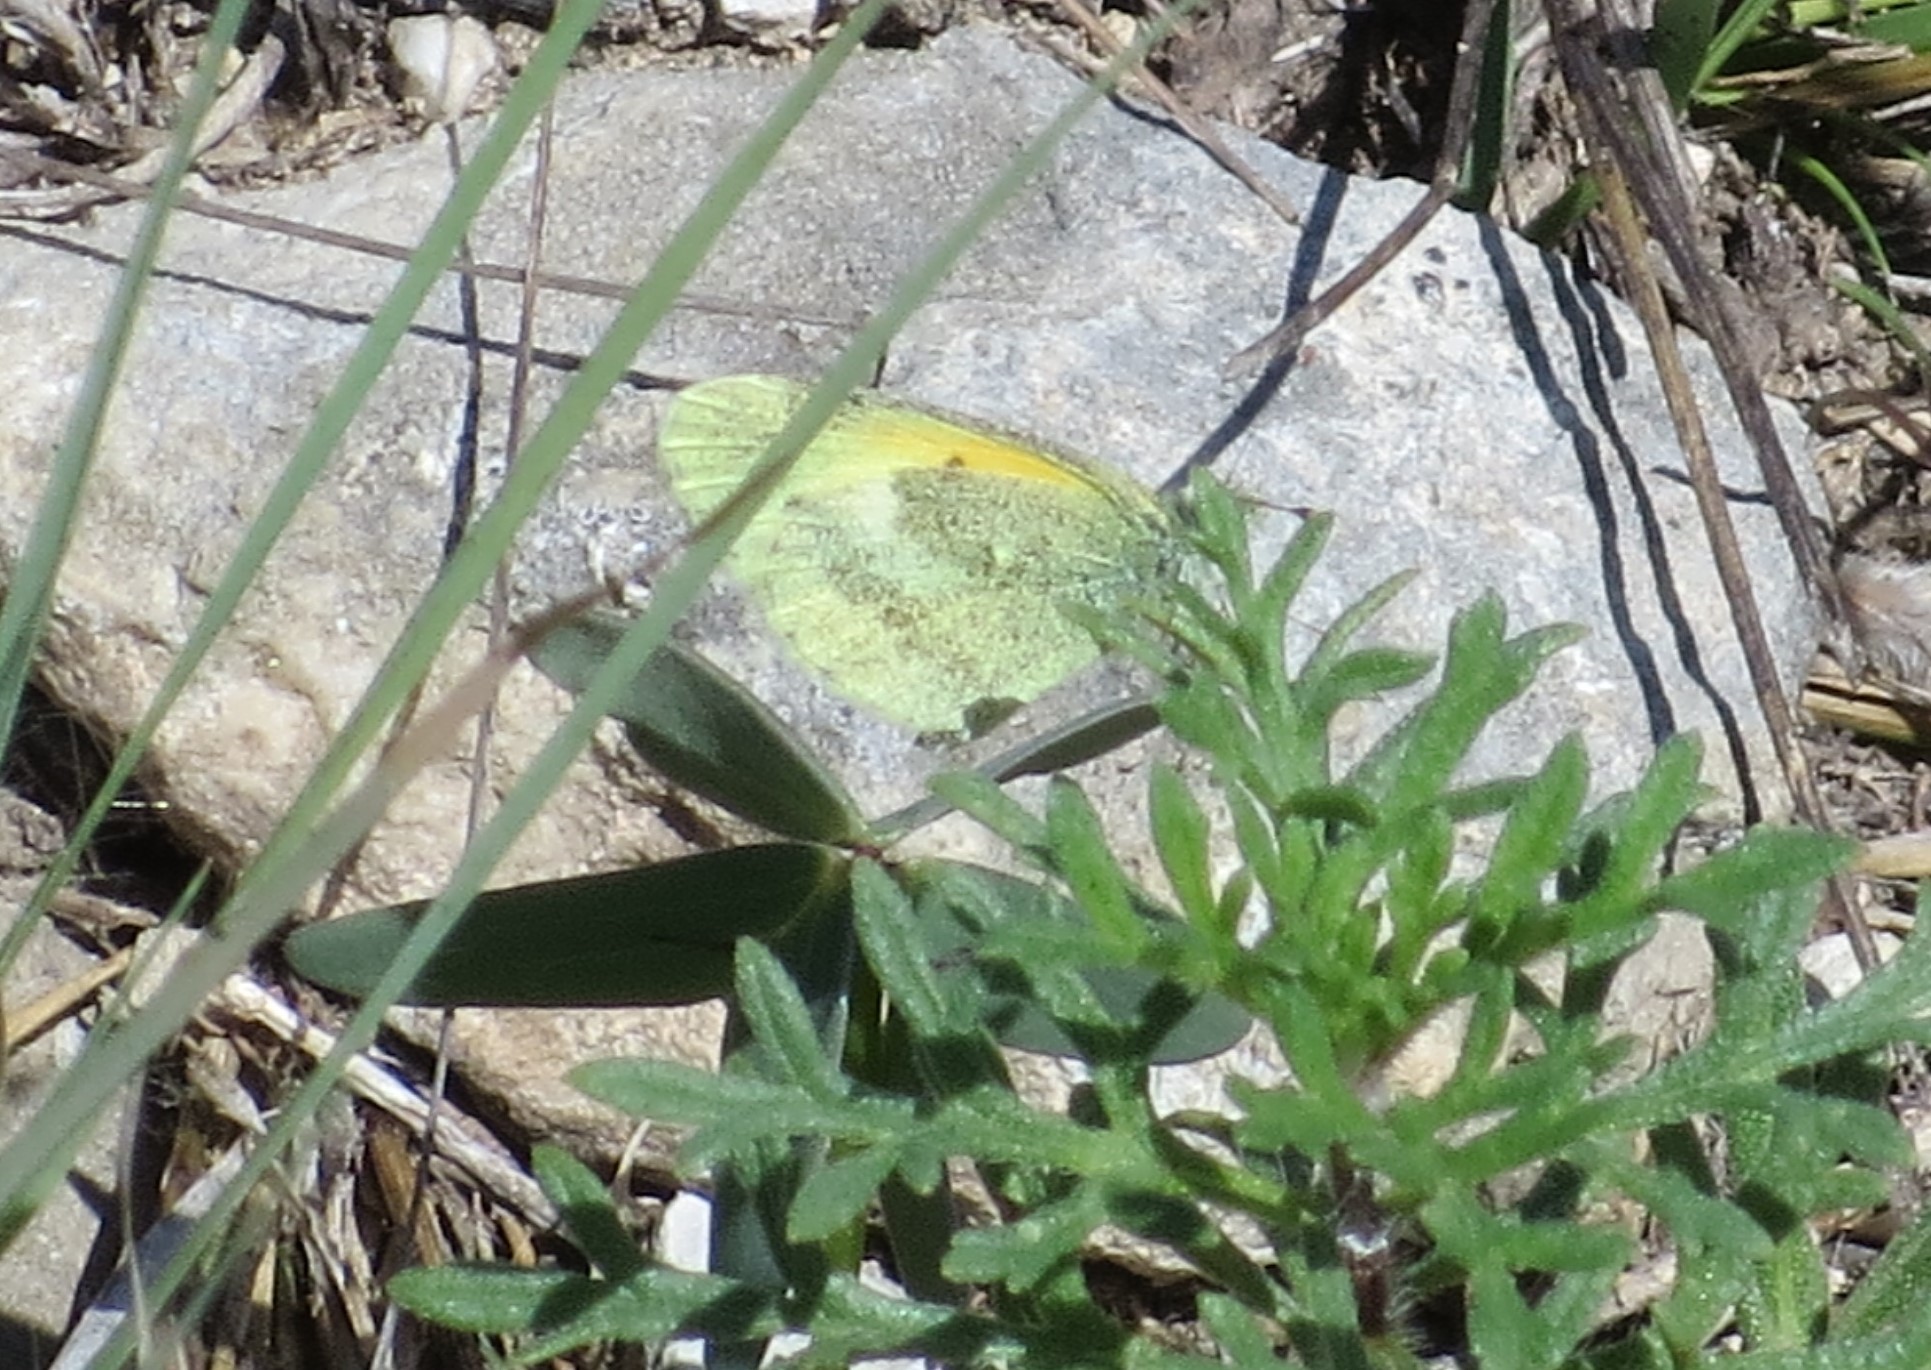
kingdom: Animalia
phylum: Arthropoda
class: Insecta
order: Lepidoptera
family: Pieridae
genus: Nathalis
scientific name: Nathalis iole
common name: Dainty sulphur
